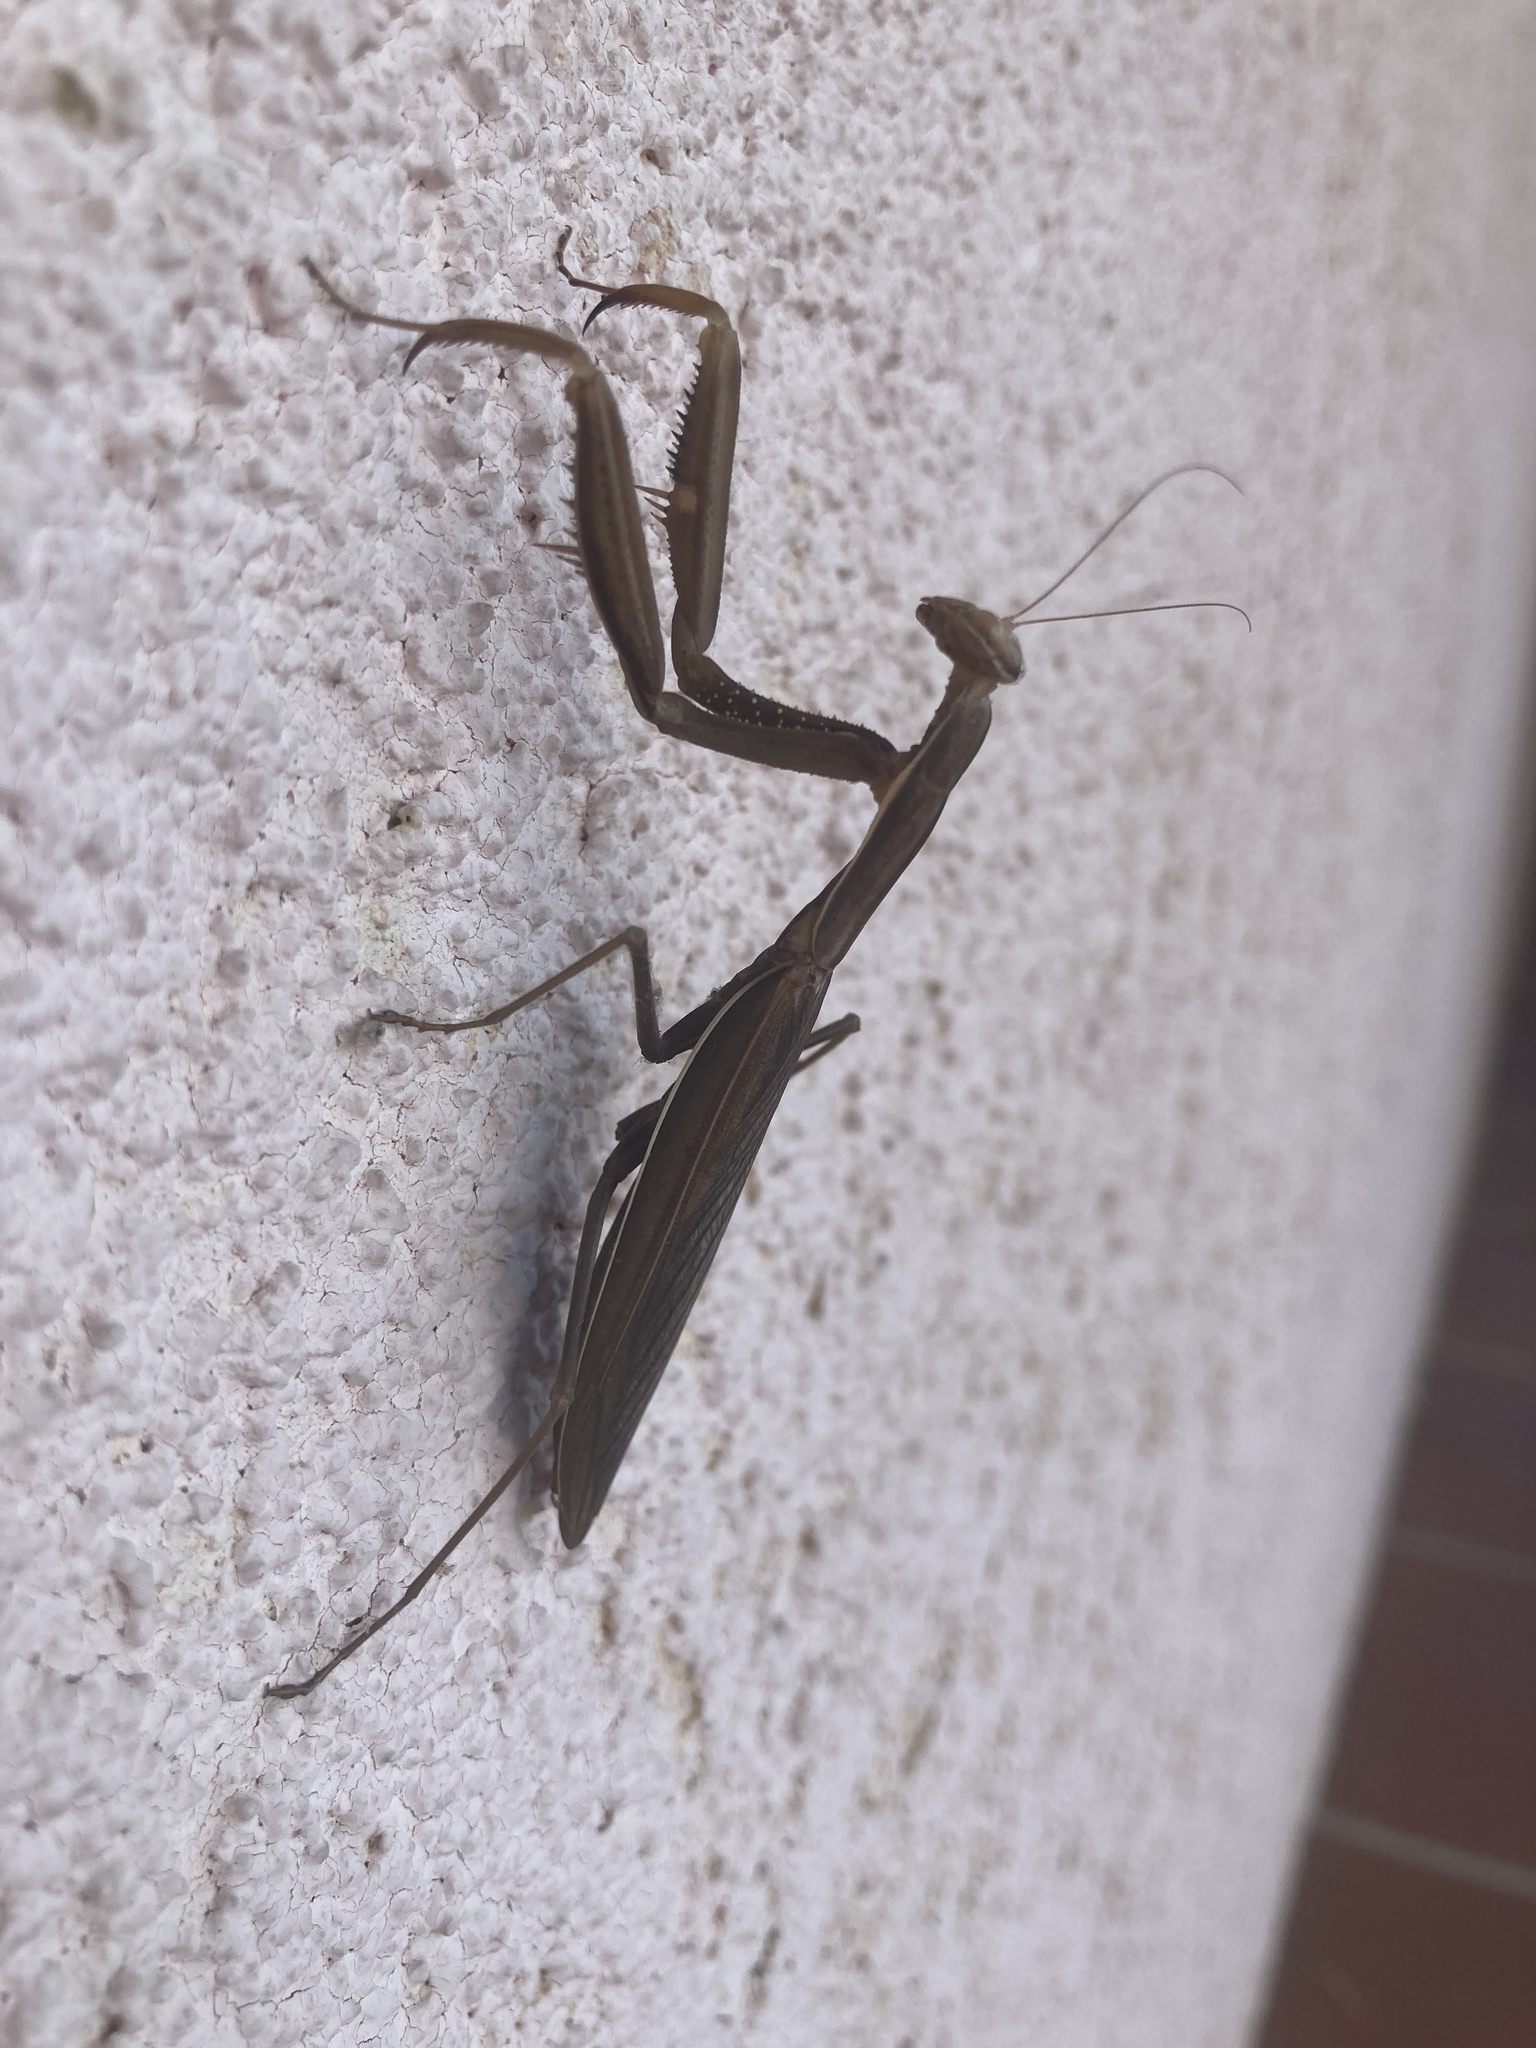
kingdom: Animalia
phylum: Arthropoda
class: Insecta
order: Mantodea
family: Mantidae
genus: Mantis
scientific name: Mantis religiosa
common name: Praying mantis
